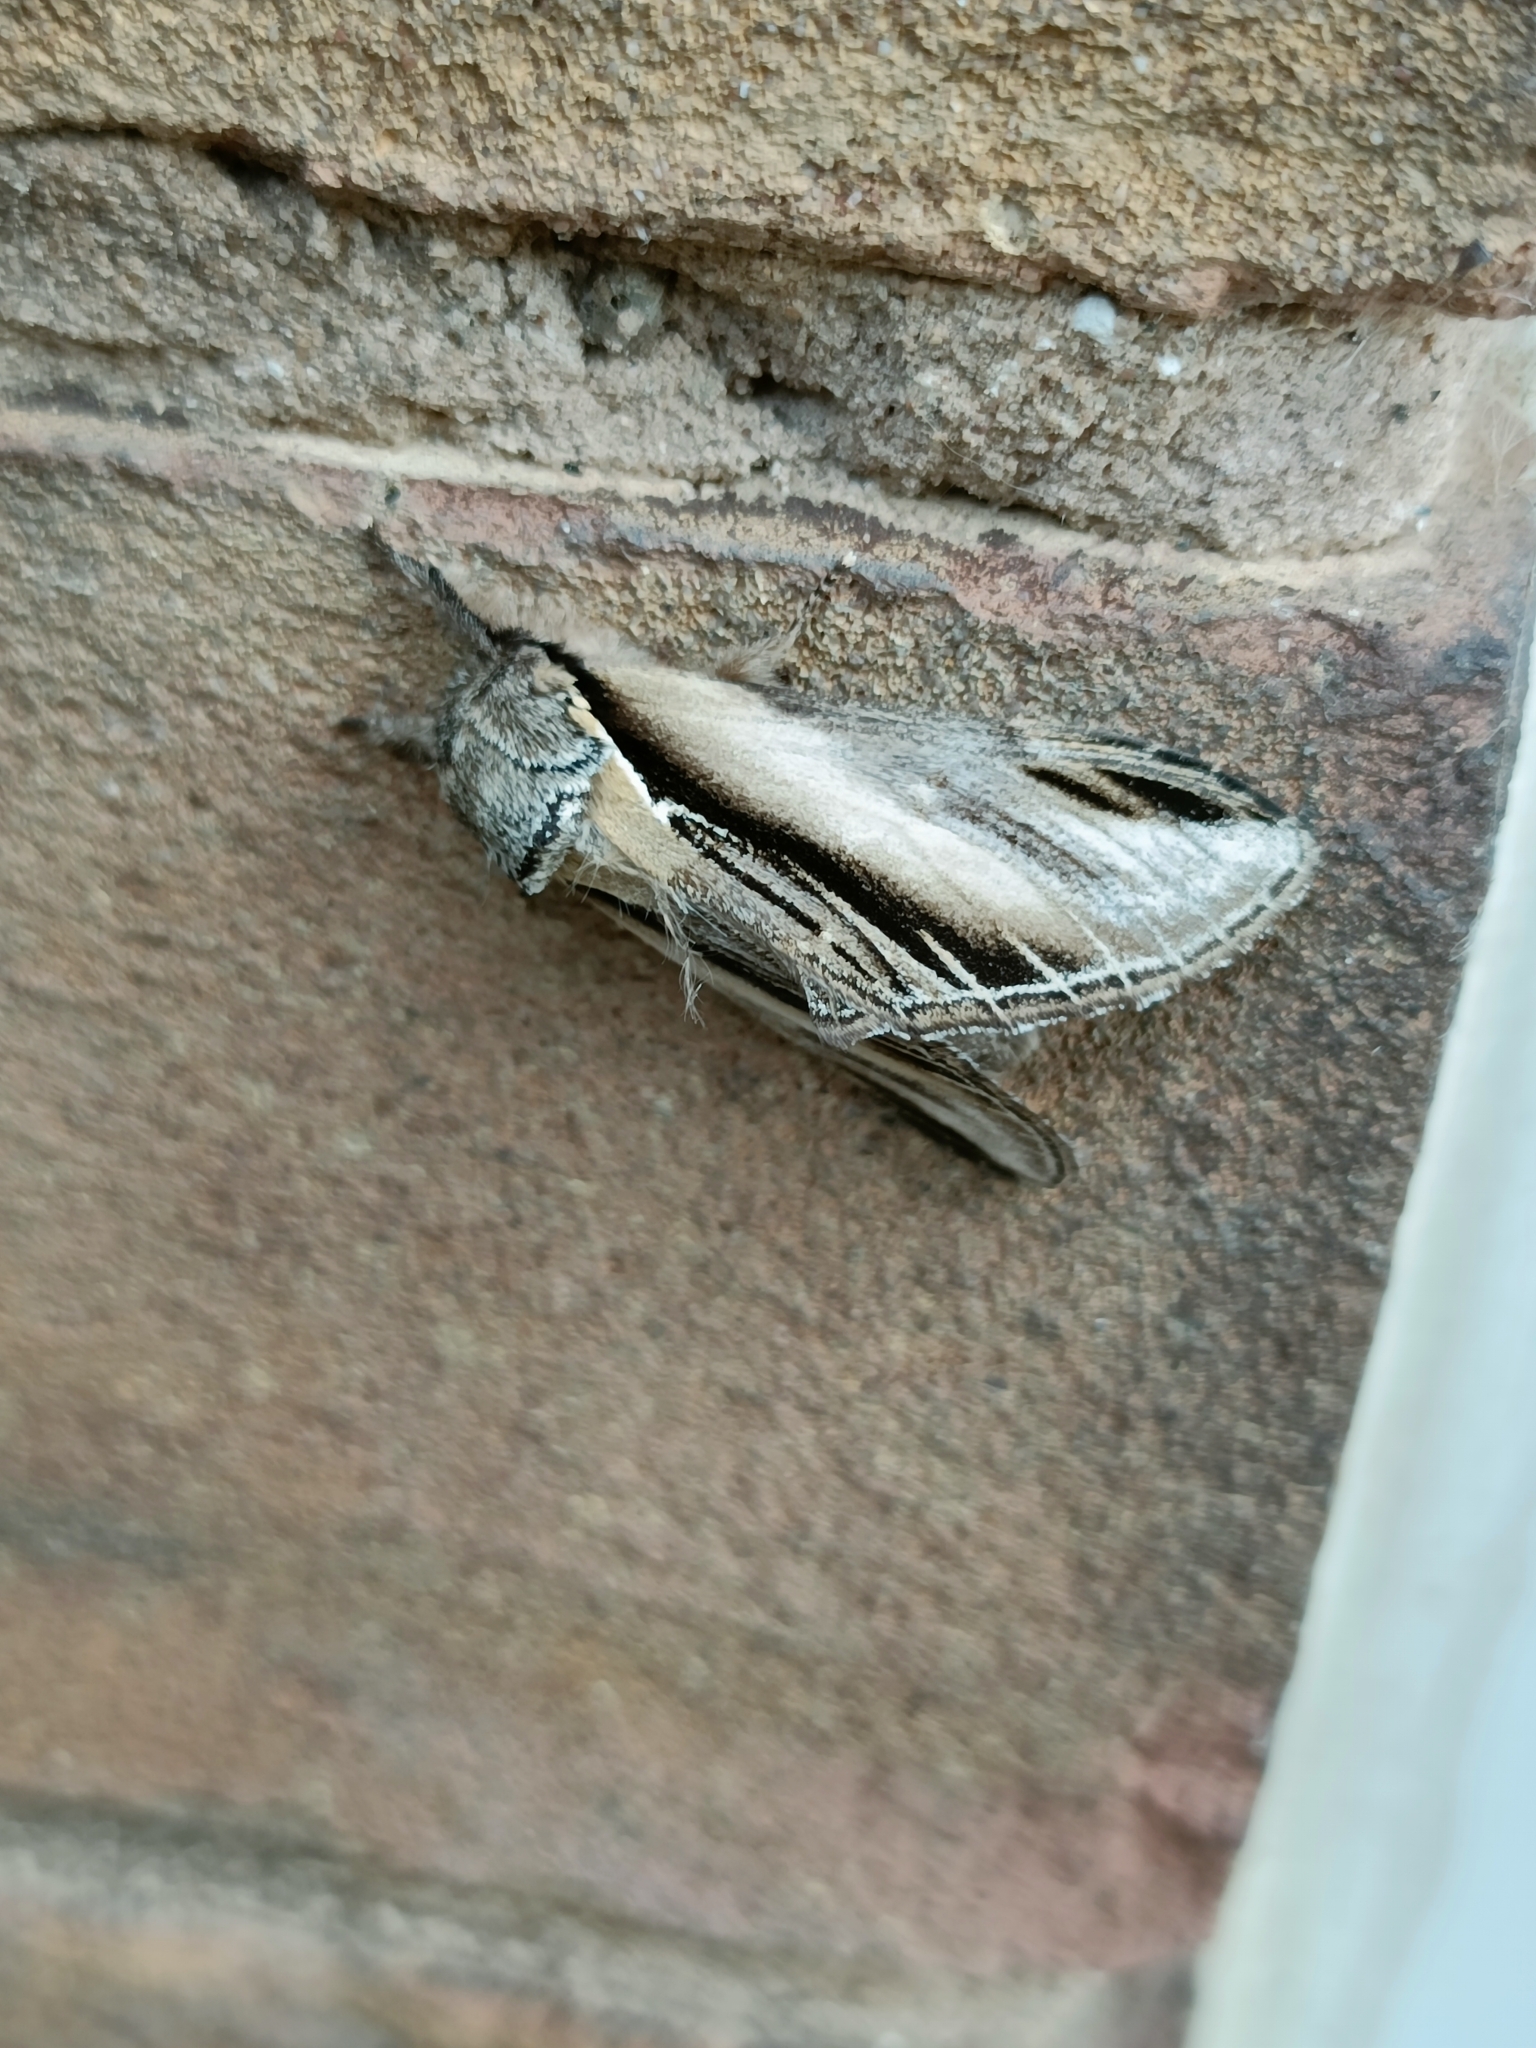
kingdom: Animalia
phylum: Arthropoda
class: Insecta
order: Lepidoptera
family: Notodontidae
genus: Pheosia
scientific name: Pheosia tremula
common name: Swallow prominent
